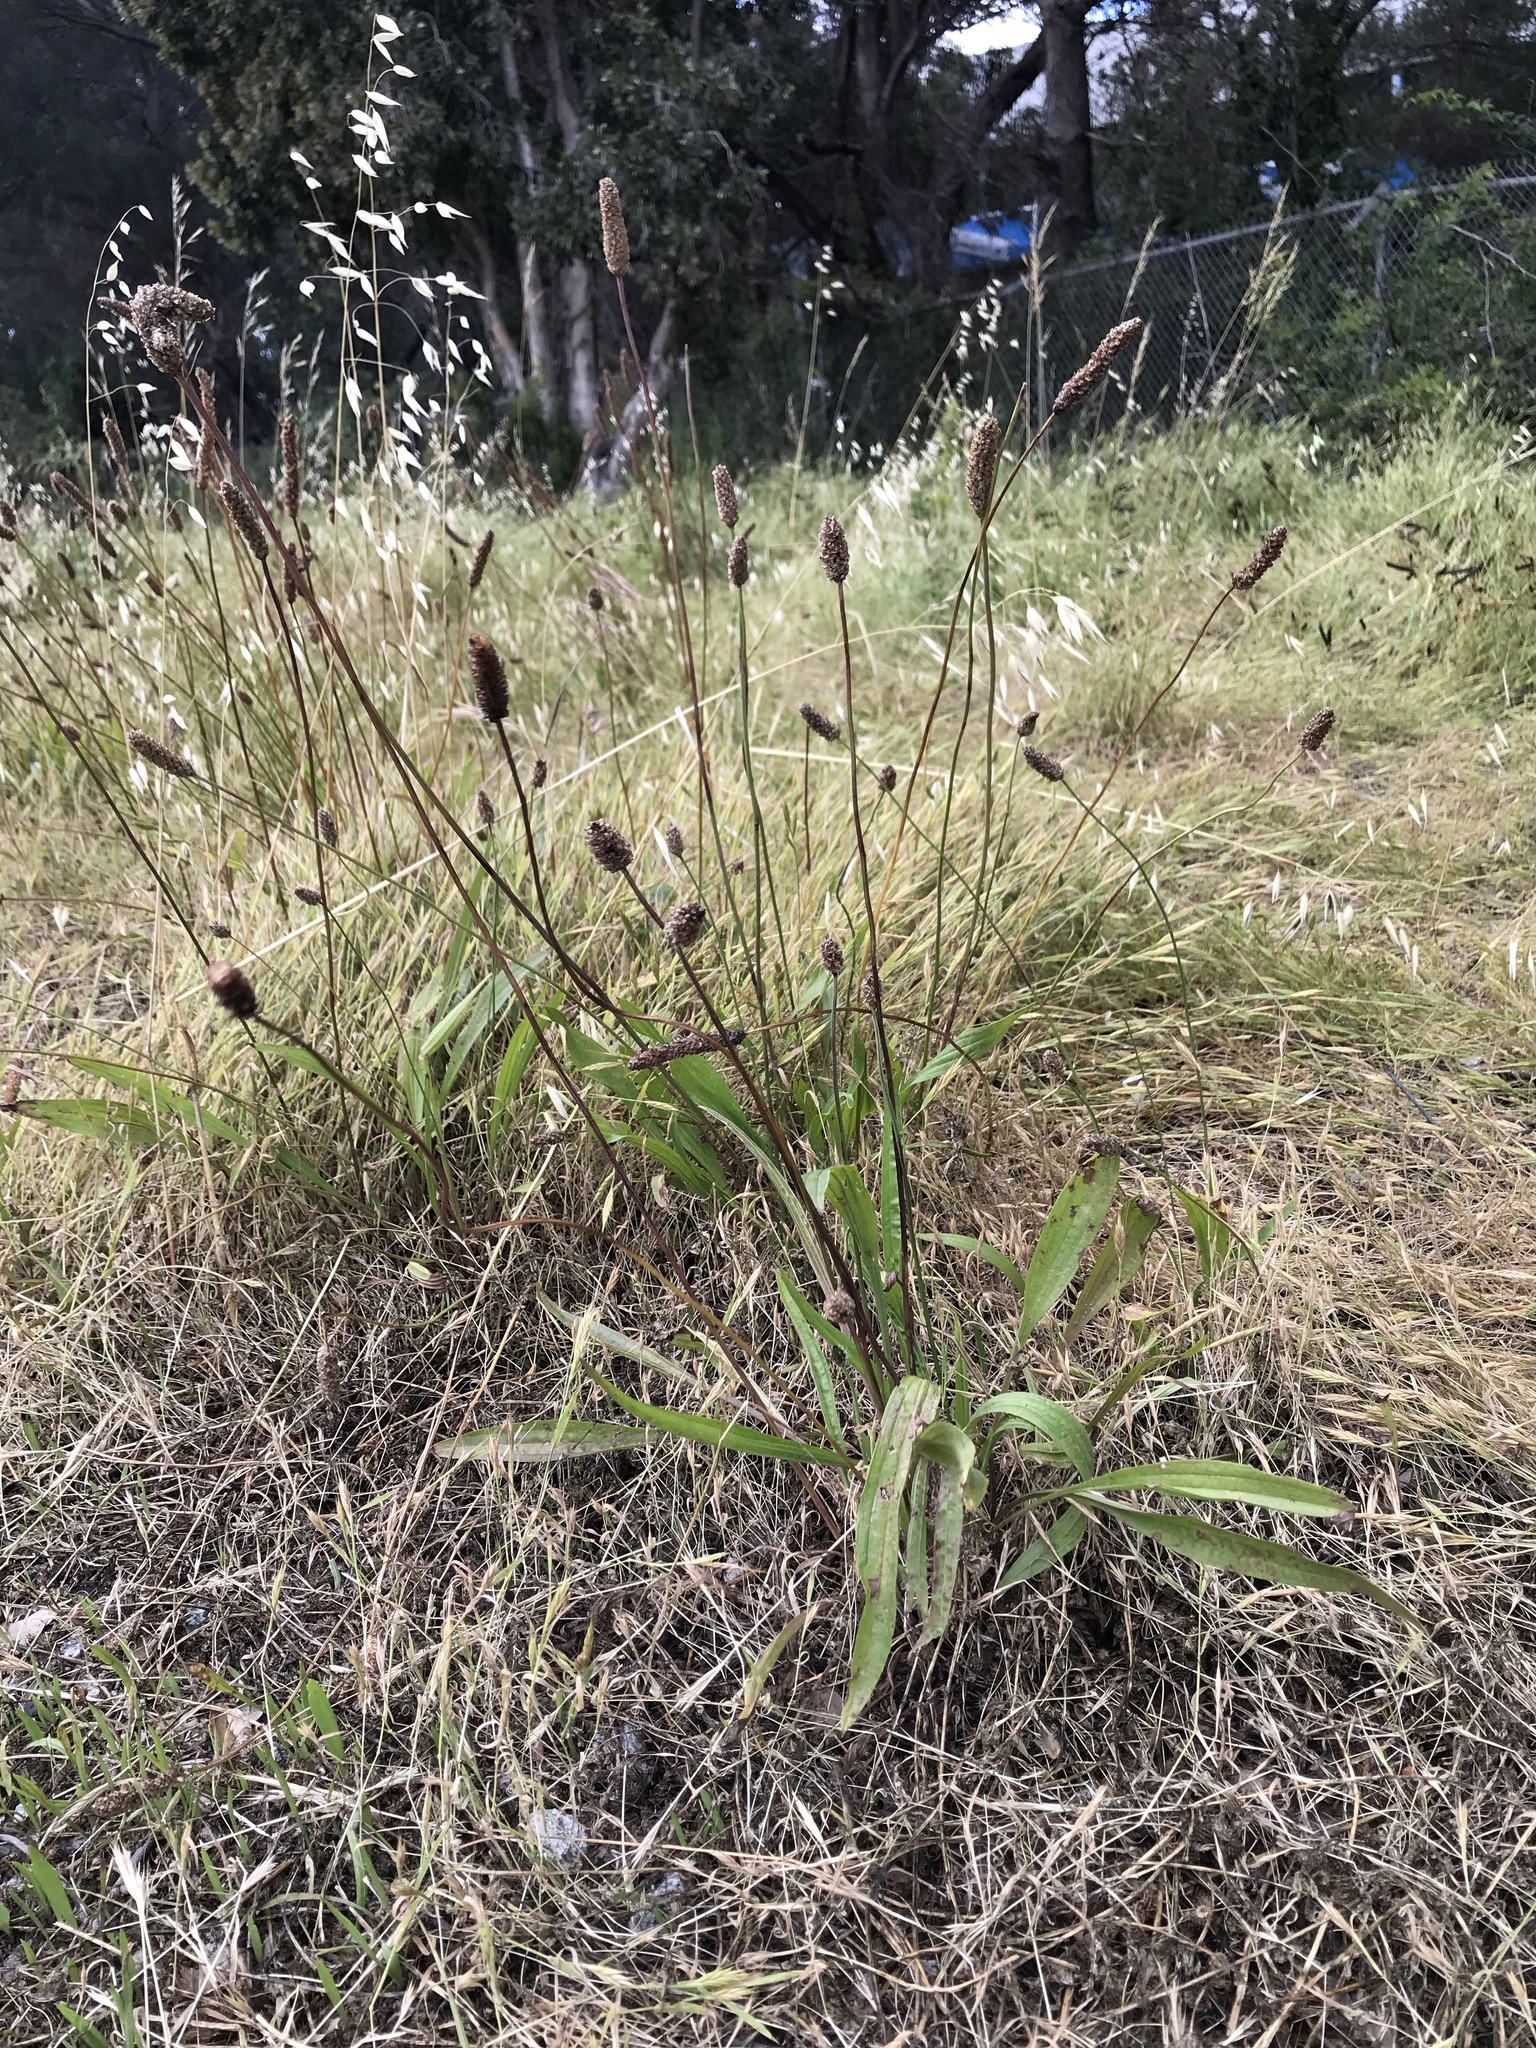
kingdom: Plantae
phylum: Tracheophyta
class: Magnoliopsida
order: Lamiales
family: Plantaginaceae
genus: Plantago
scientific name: Plantago lanceolata
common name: Ribwort plantain
